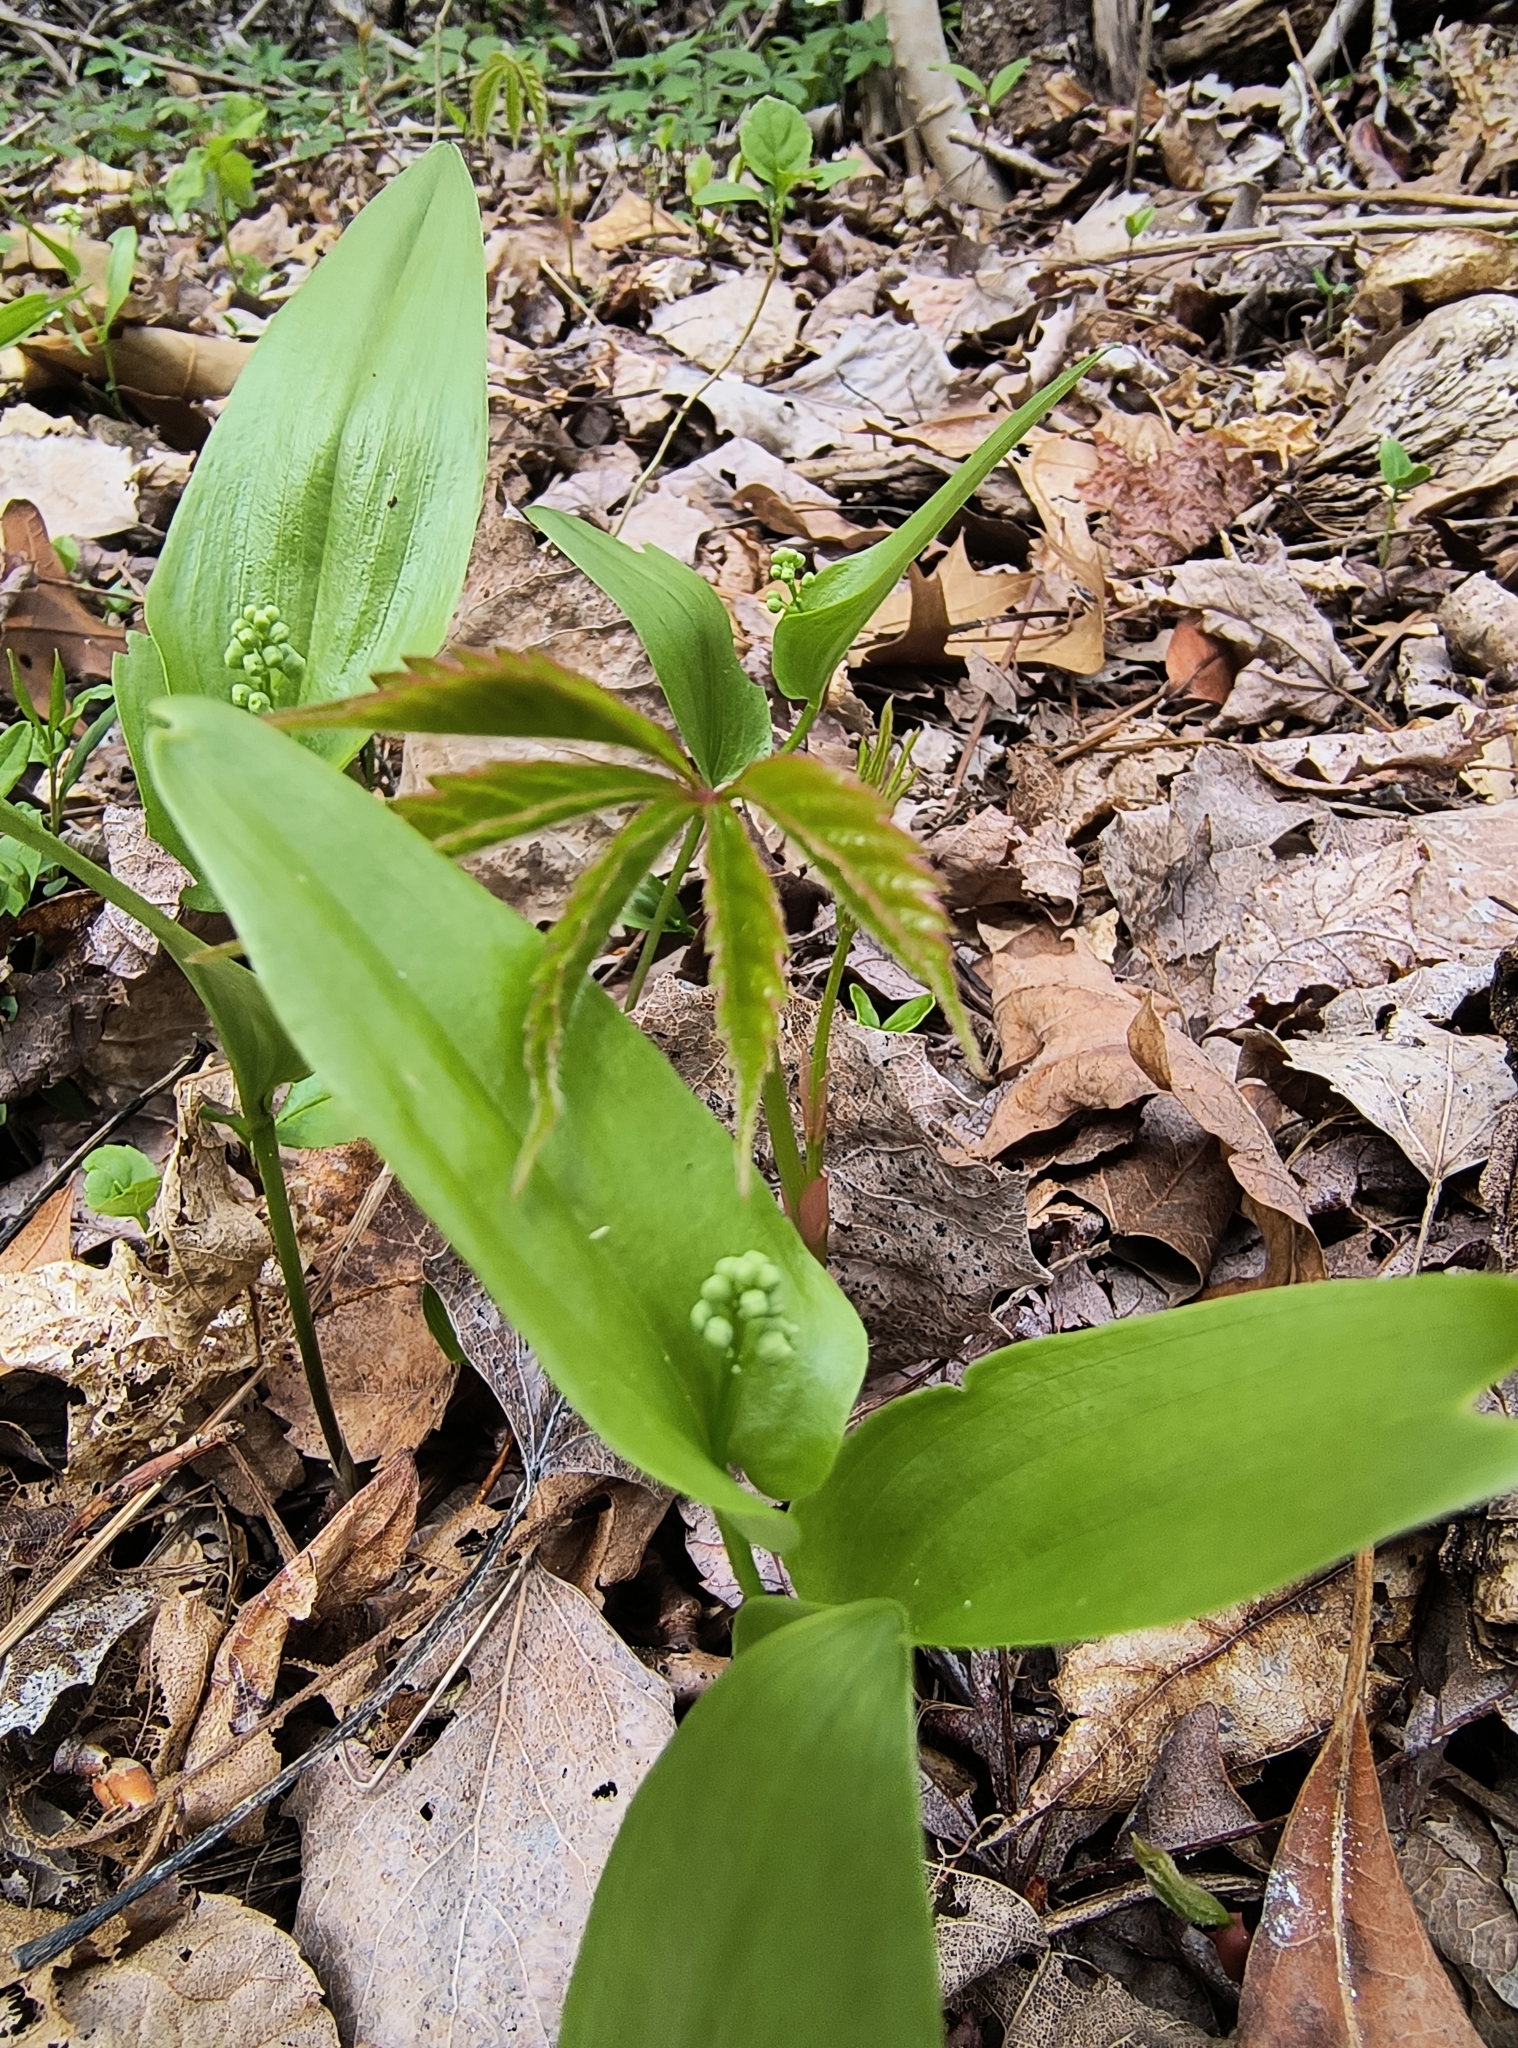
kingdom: Plantae
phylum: Tracheophyta
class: Liliopsida
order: Asparagales
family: Asparagaceae
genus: Maianthemum
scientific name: Maianthemum canadense
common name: False lily-of-the-valley
